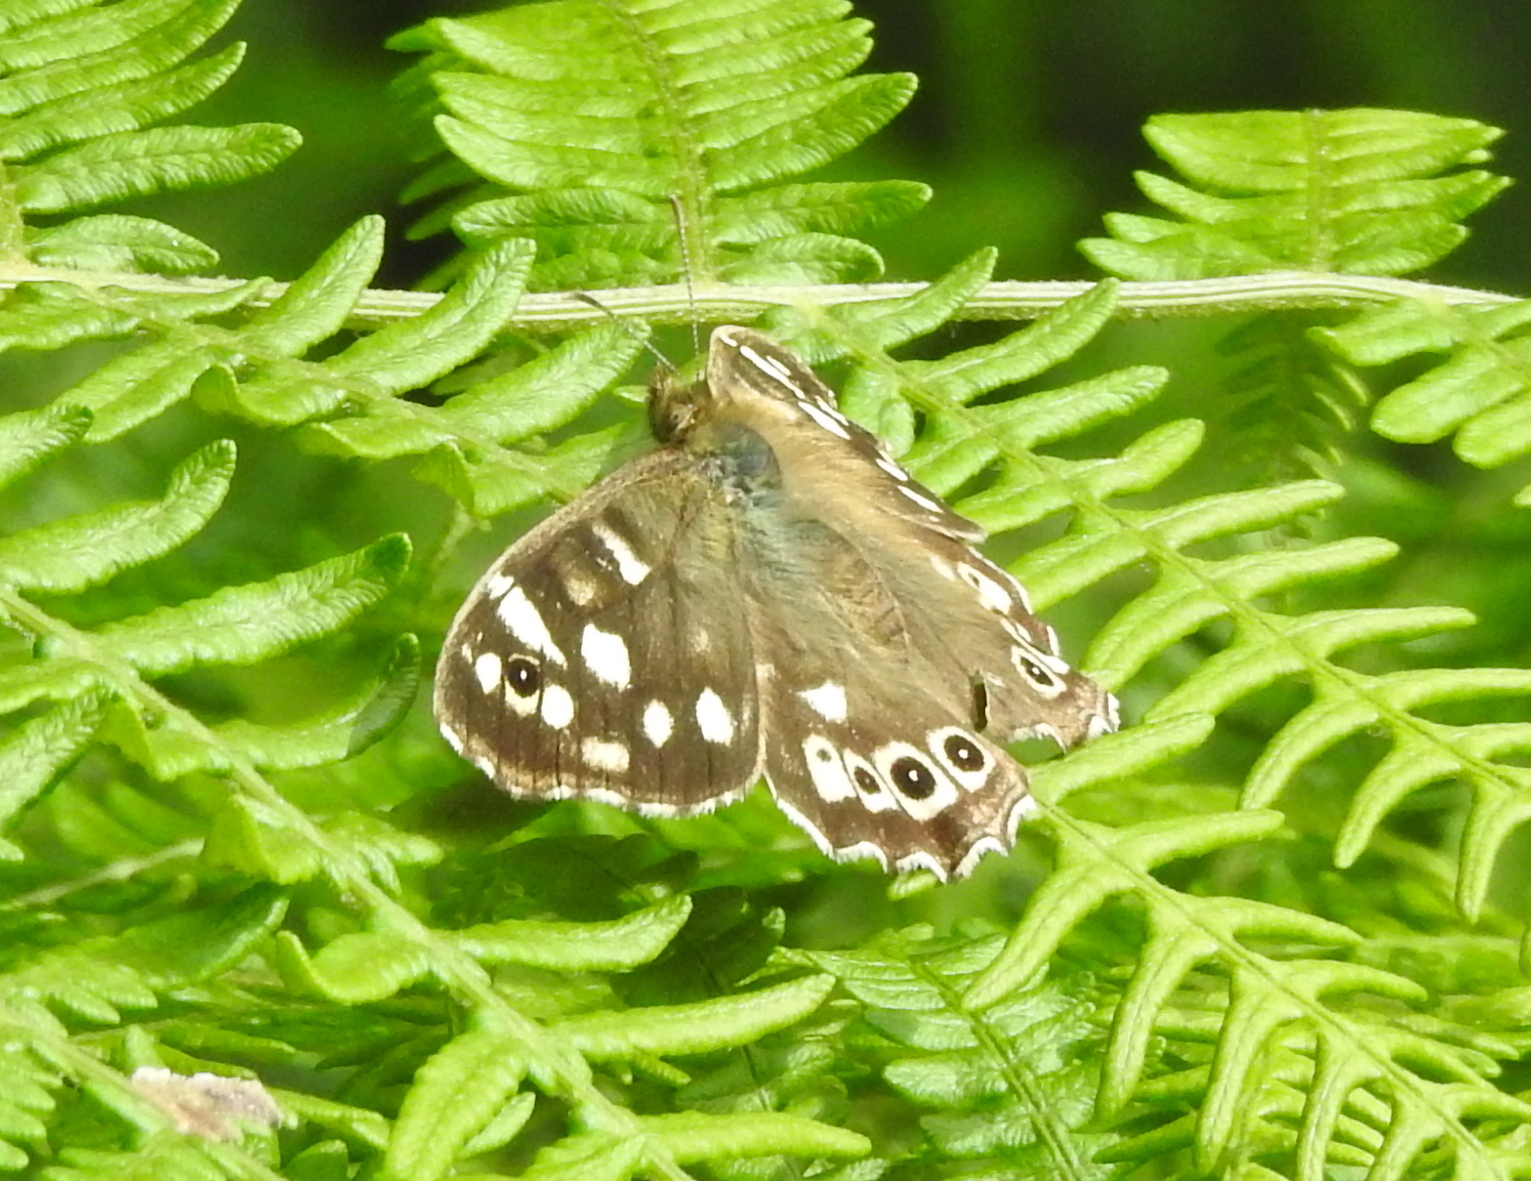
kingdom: Animalia
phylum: Arthropoda
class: Insecta
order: Lepidoptera
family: Nymphalidae
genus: Pararge
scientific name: Pararge aegeria
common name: Speckled wood
